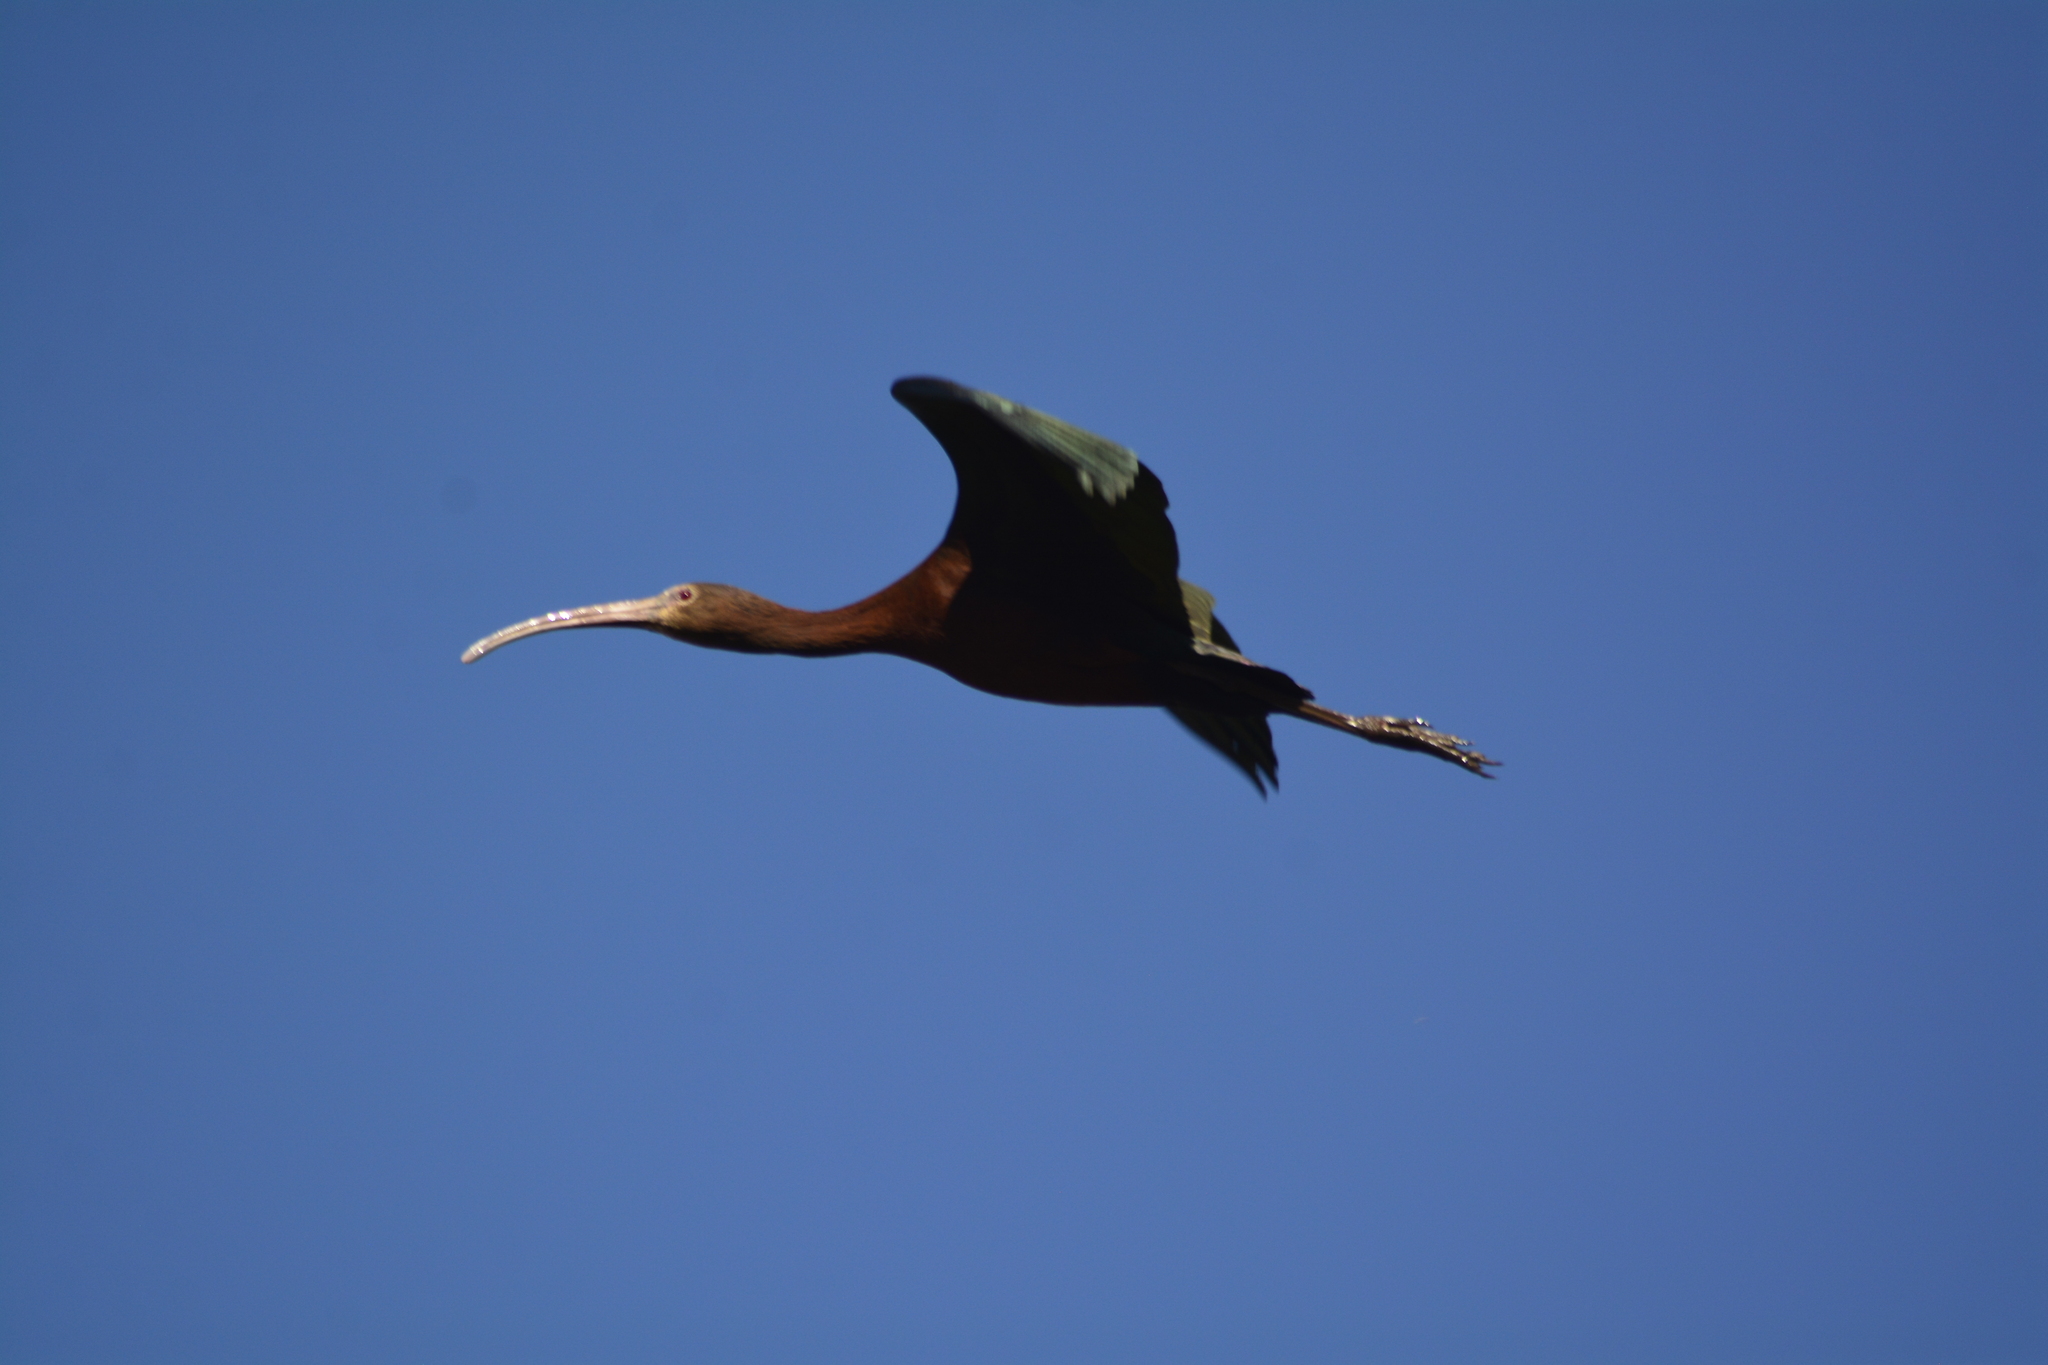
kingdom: Animalia
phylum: Chordata
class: Aves
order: Pelecaniformes
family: Threskiornithidae
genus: Plegadis
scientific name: Plegadis chihi
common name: White-faced ibis
